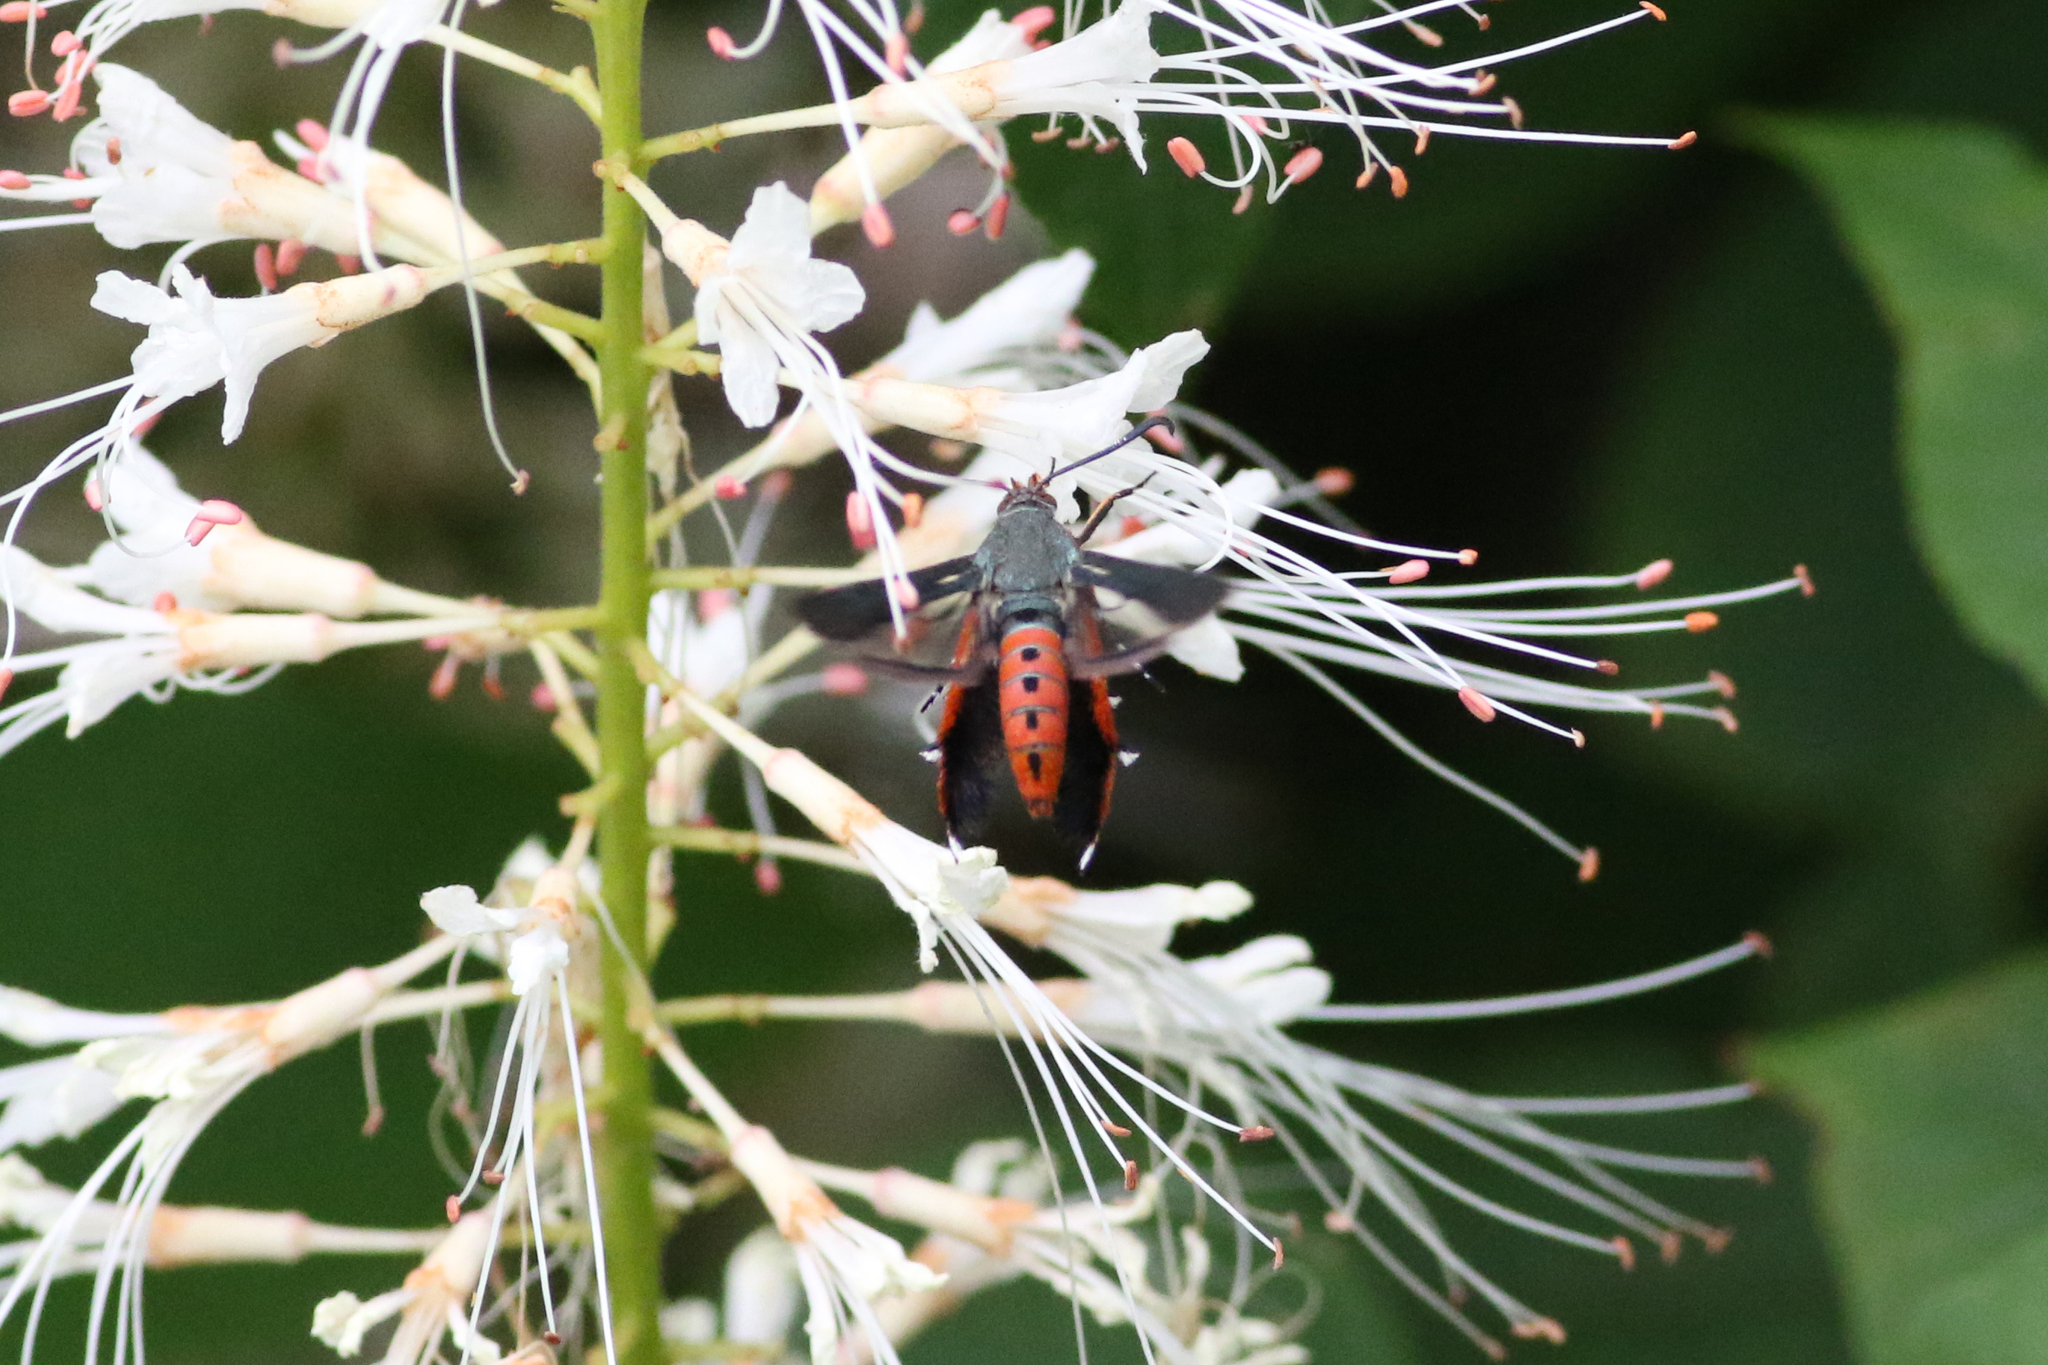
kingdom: Animalia
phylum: Arthropoda
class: Insecta
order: Lepidoptera
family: Sesiidae
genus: Eichlinia
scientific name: Eichlinia cucurbitae
